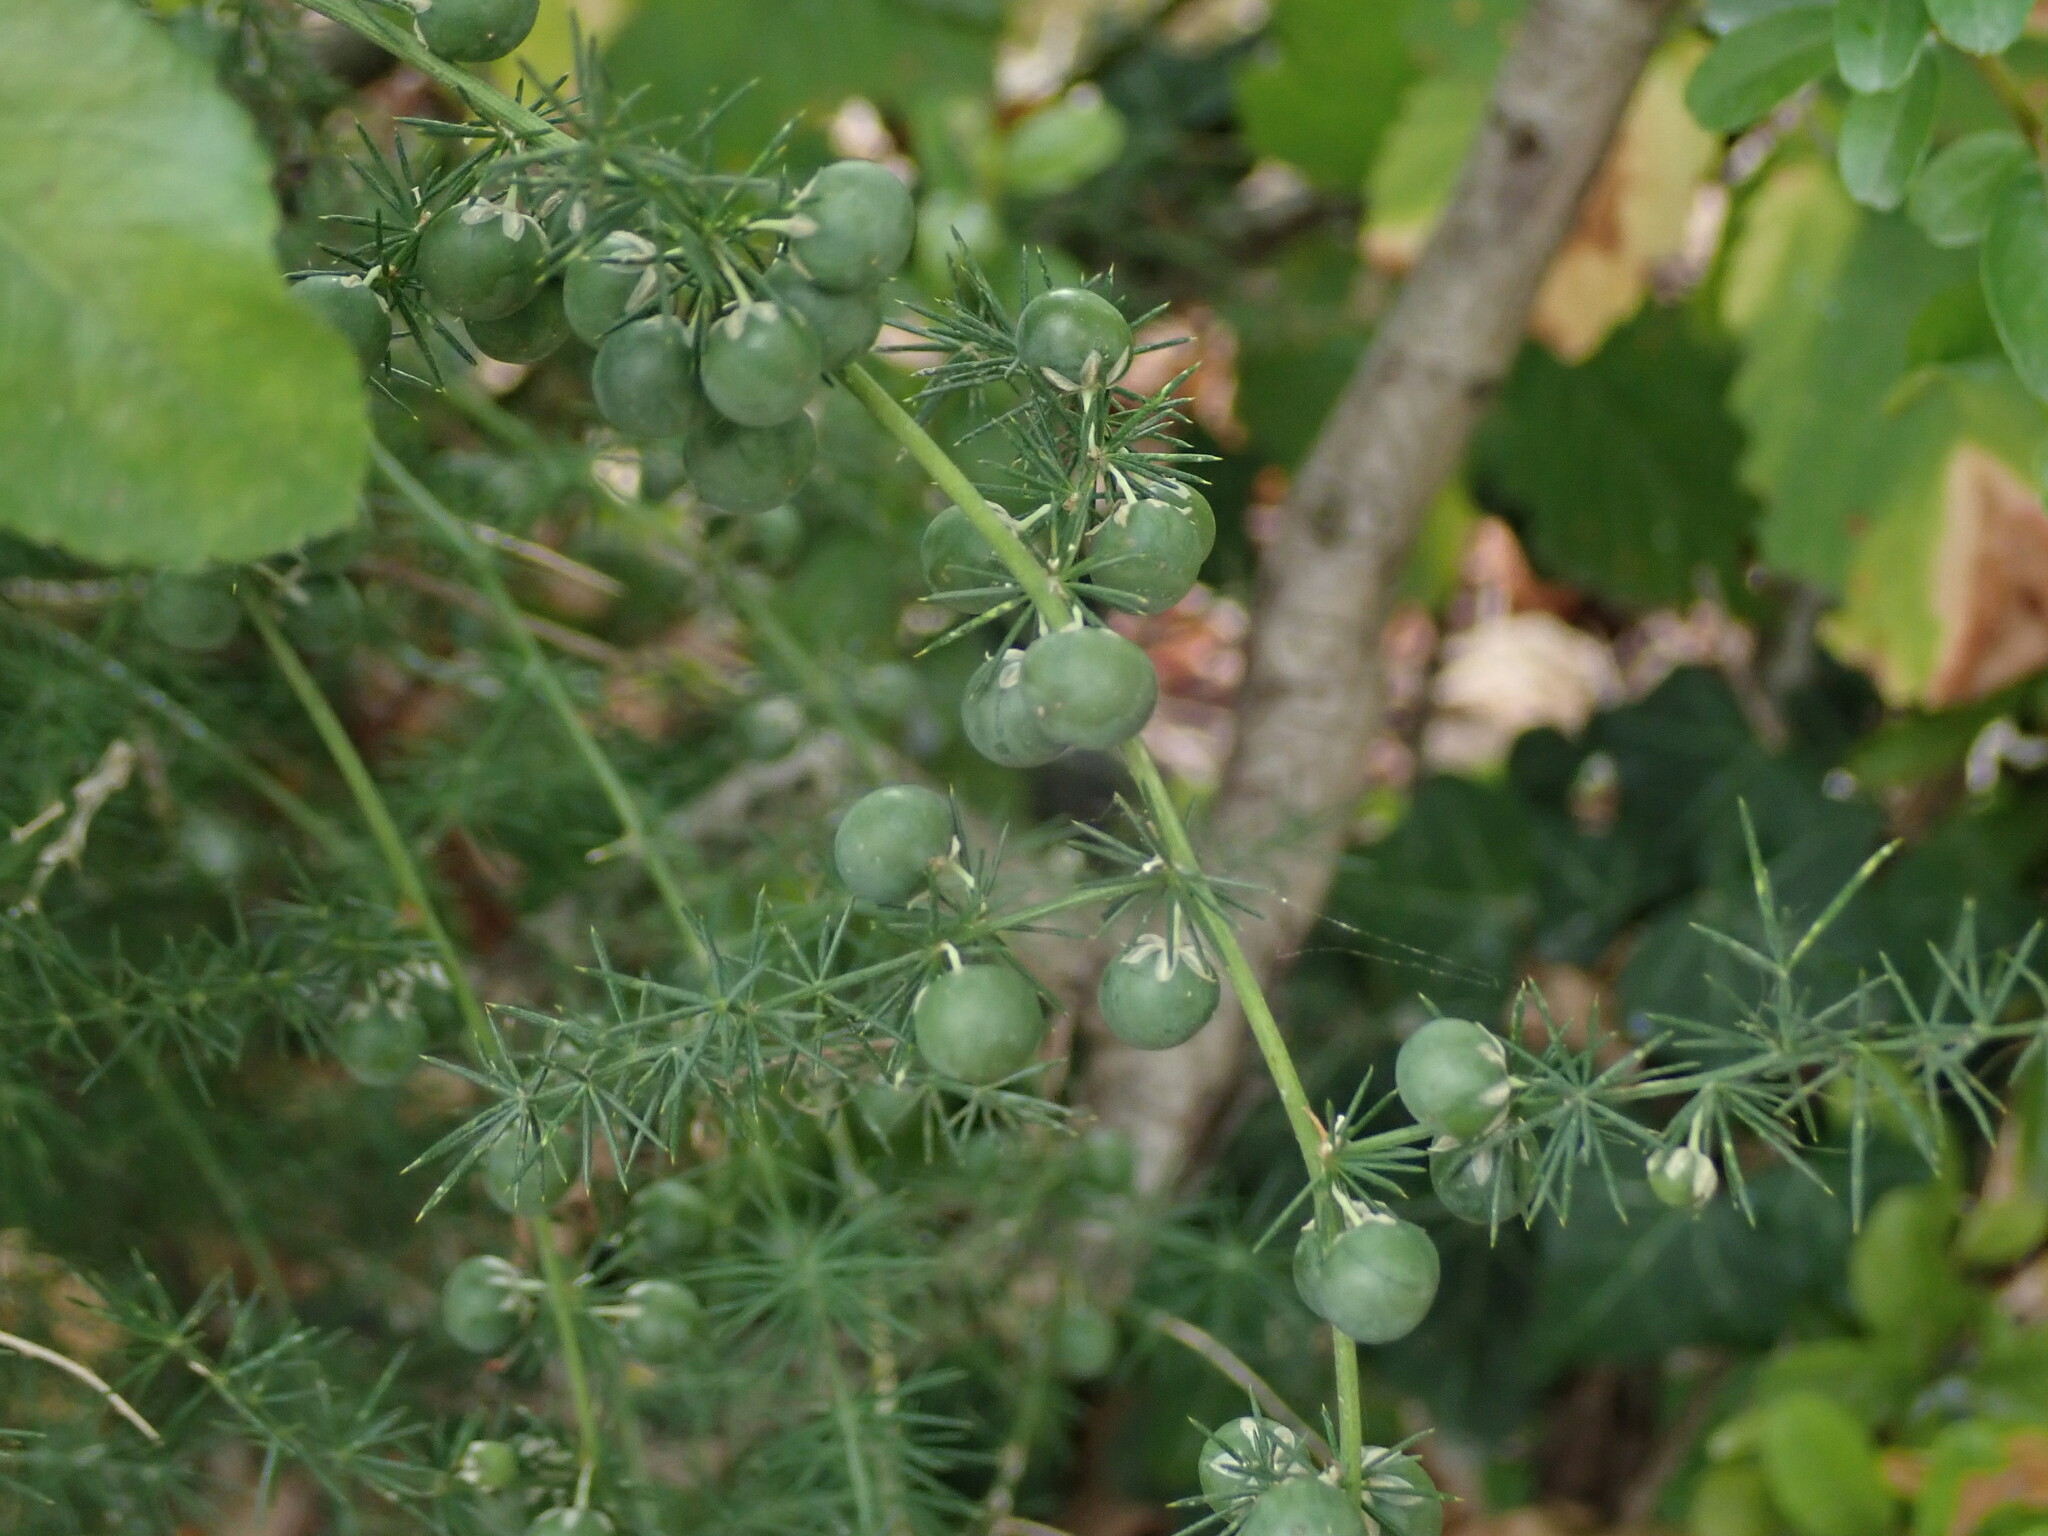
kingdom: Plantae
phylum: Tracheophyta
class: Liliopsida
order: Asparagales
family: Asparagaceae
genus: Asparagus
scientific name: Asparagus acutifolius
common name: Wild asparagus
